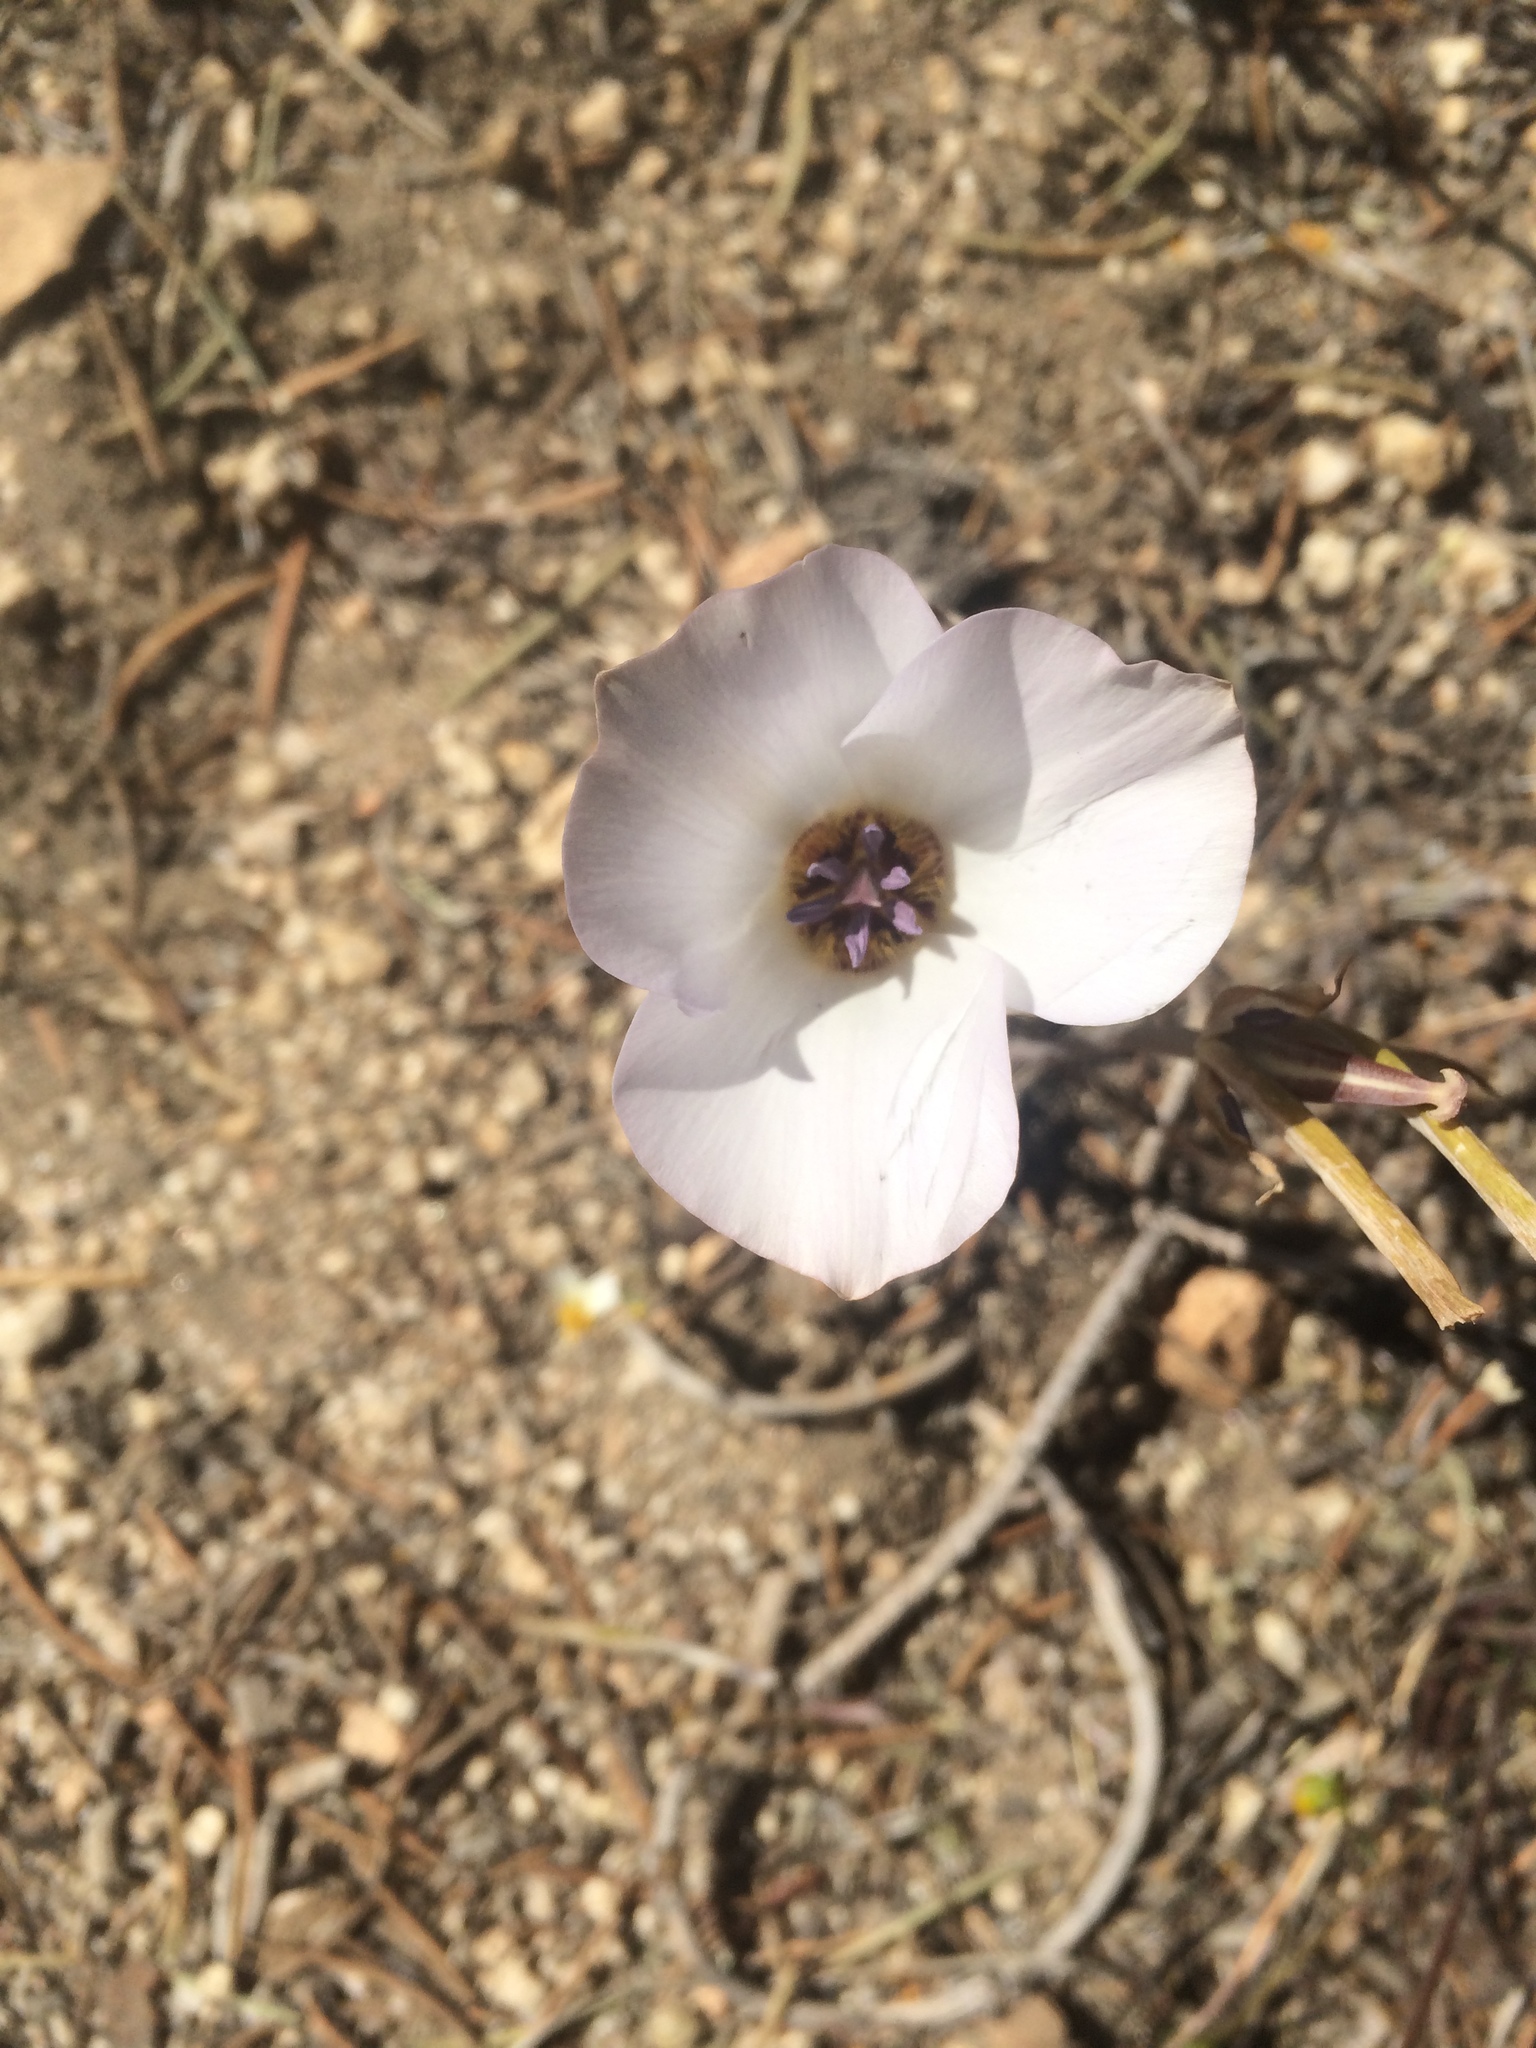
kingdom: Plantae
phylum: Tracheophyta
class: Liliopsida
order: Liliales
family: Liliaceae
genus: Calochortus
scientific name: Calochortus invenustus
